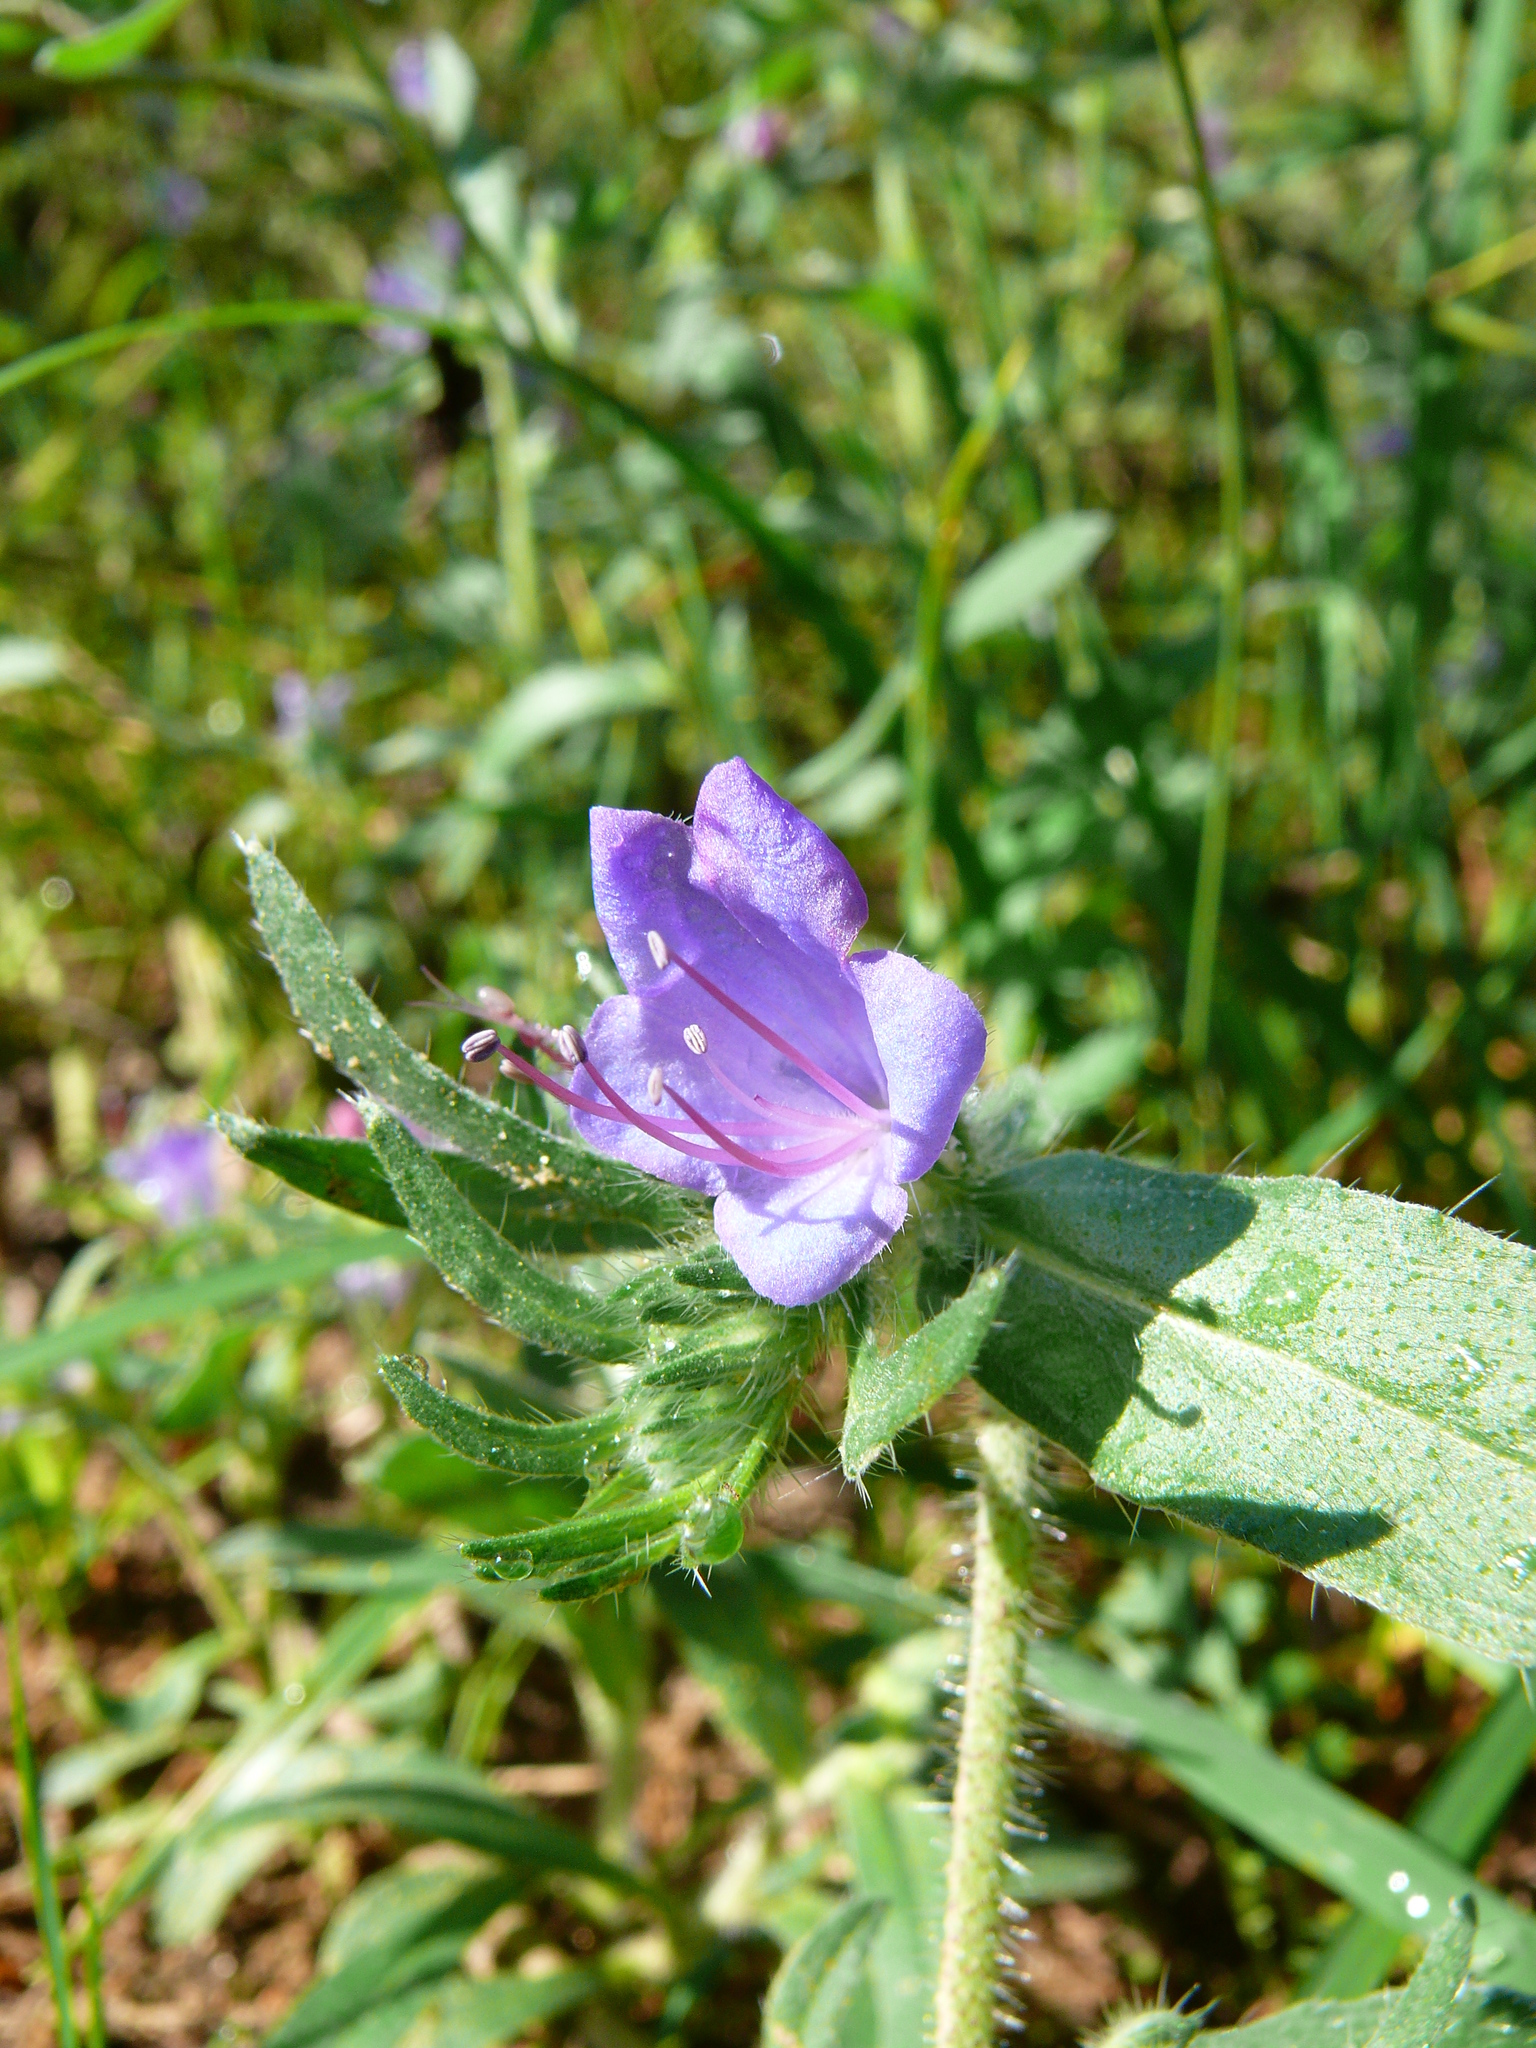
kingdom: Plantae
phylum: Tracheophyta
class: Magnoliopsida
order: Boraginales
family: Boraginaceae
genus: Echium
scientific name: Echium vulgare
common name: Common viper's bugloss
